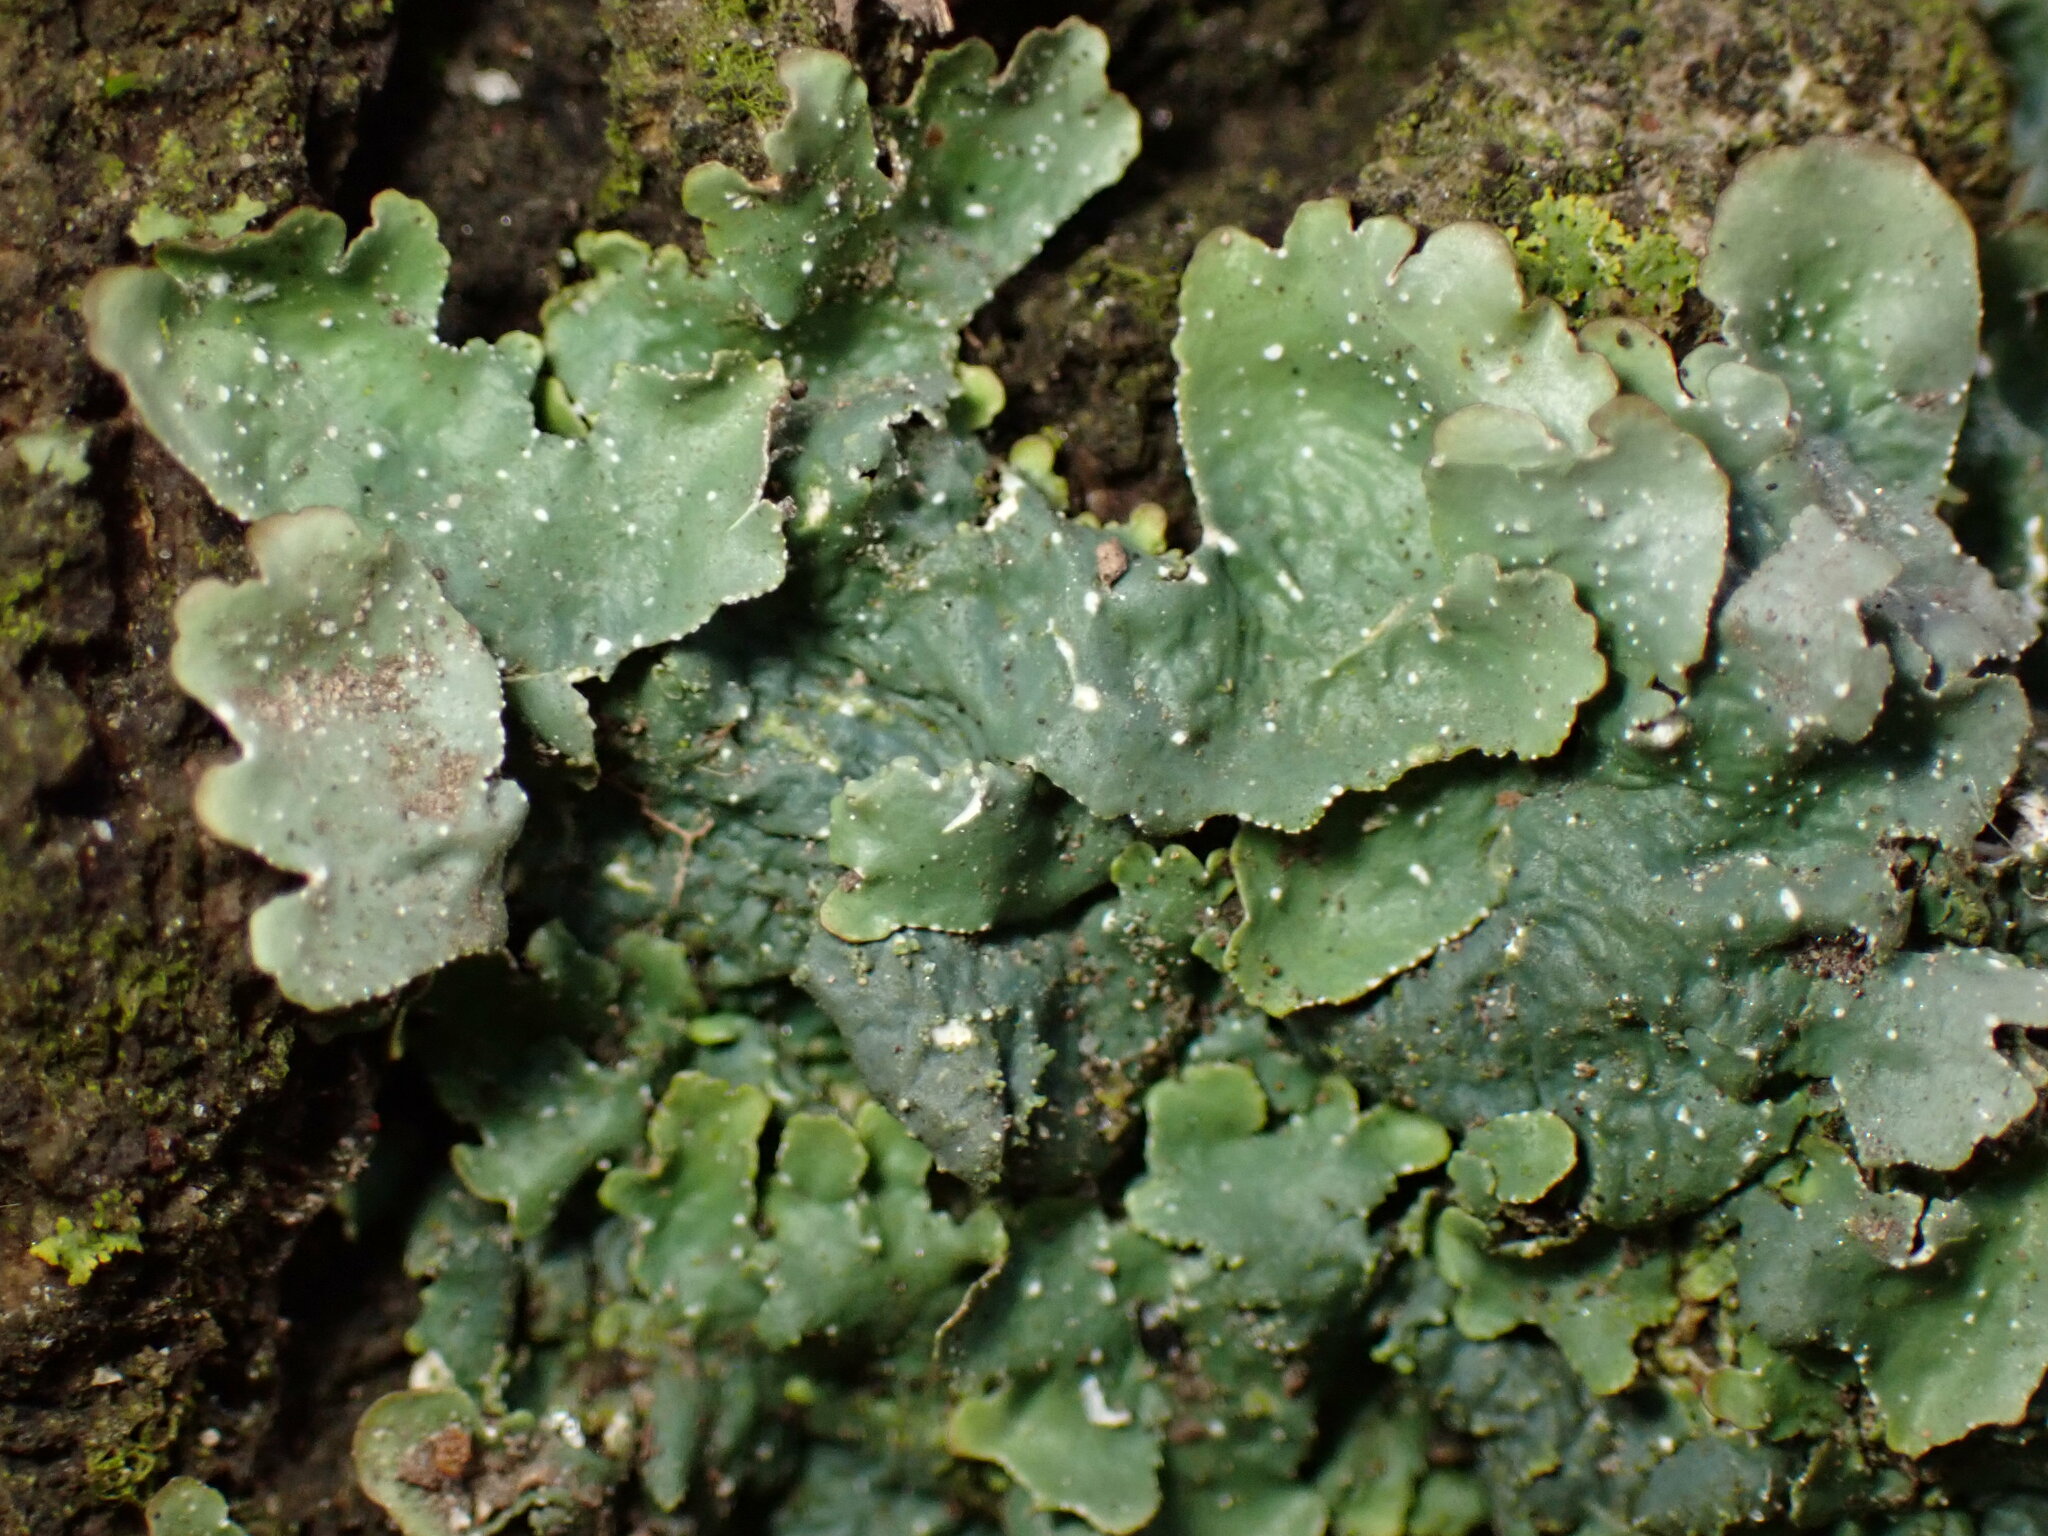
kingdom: Fungi
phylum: Ascomycota
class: Lecanoromycetes
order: Lecanorales
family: Parmeliaceae
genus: Punctelia
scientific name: Punctelia rudecta
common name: Rough speckled shield lichen
